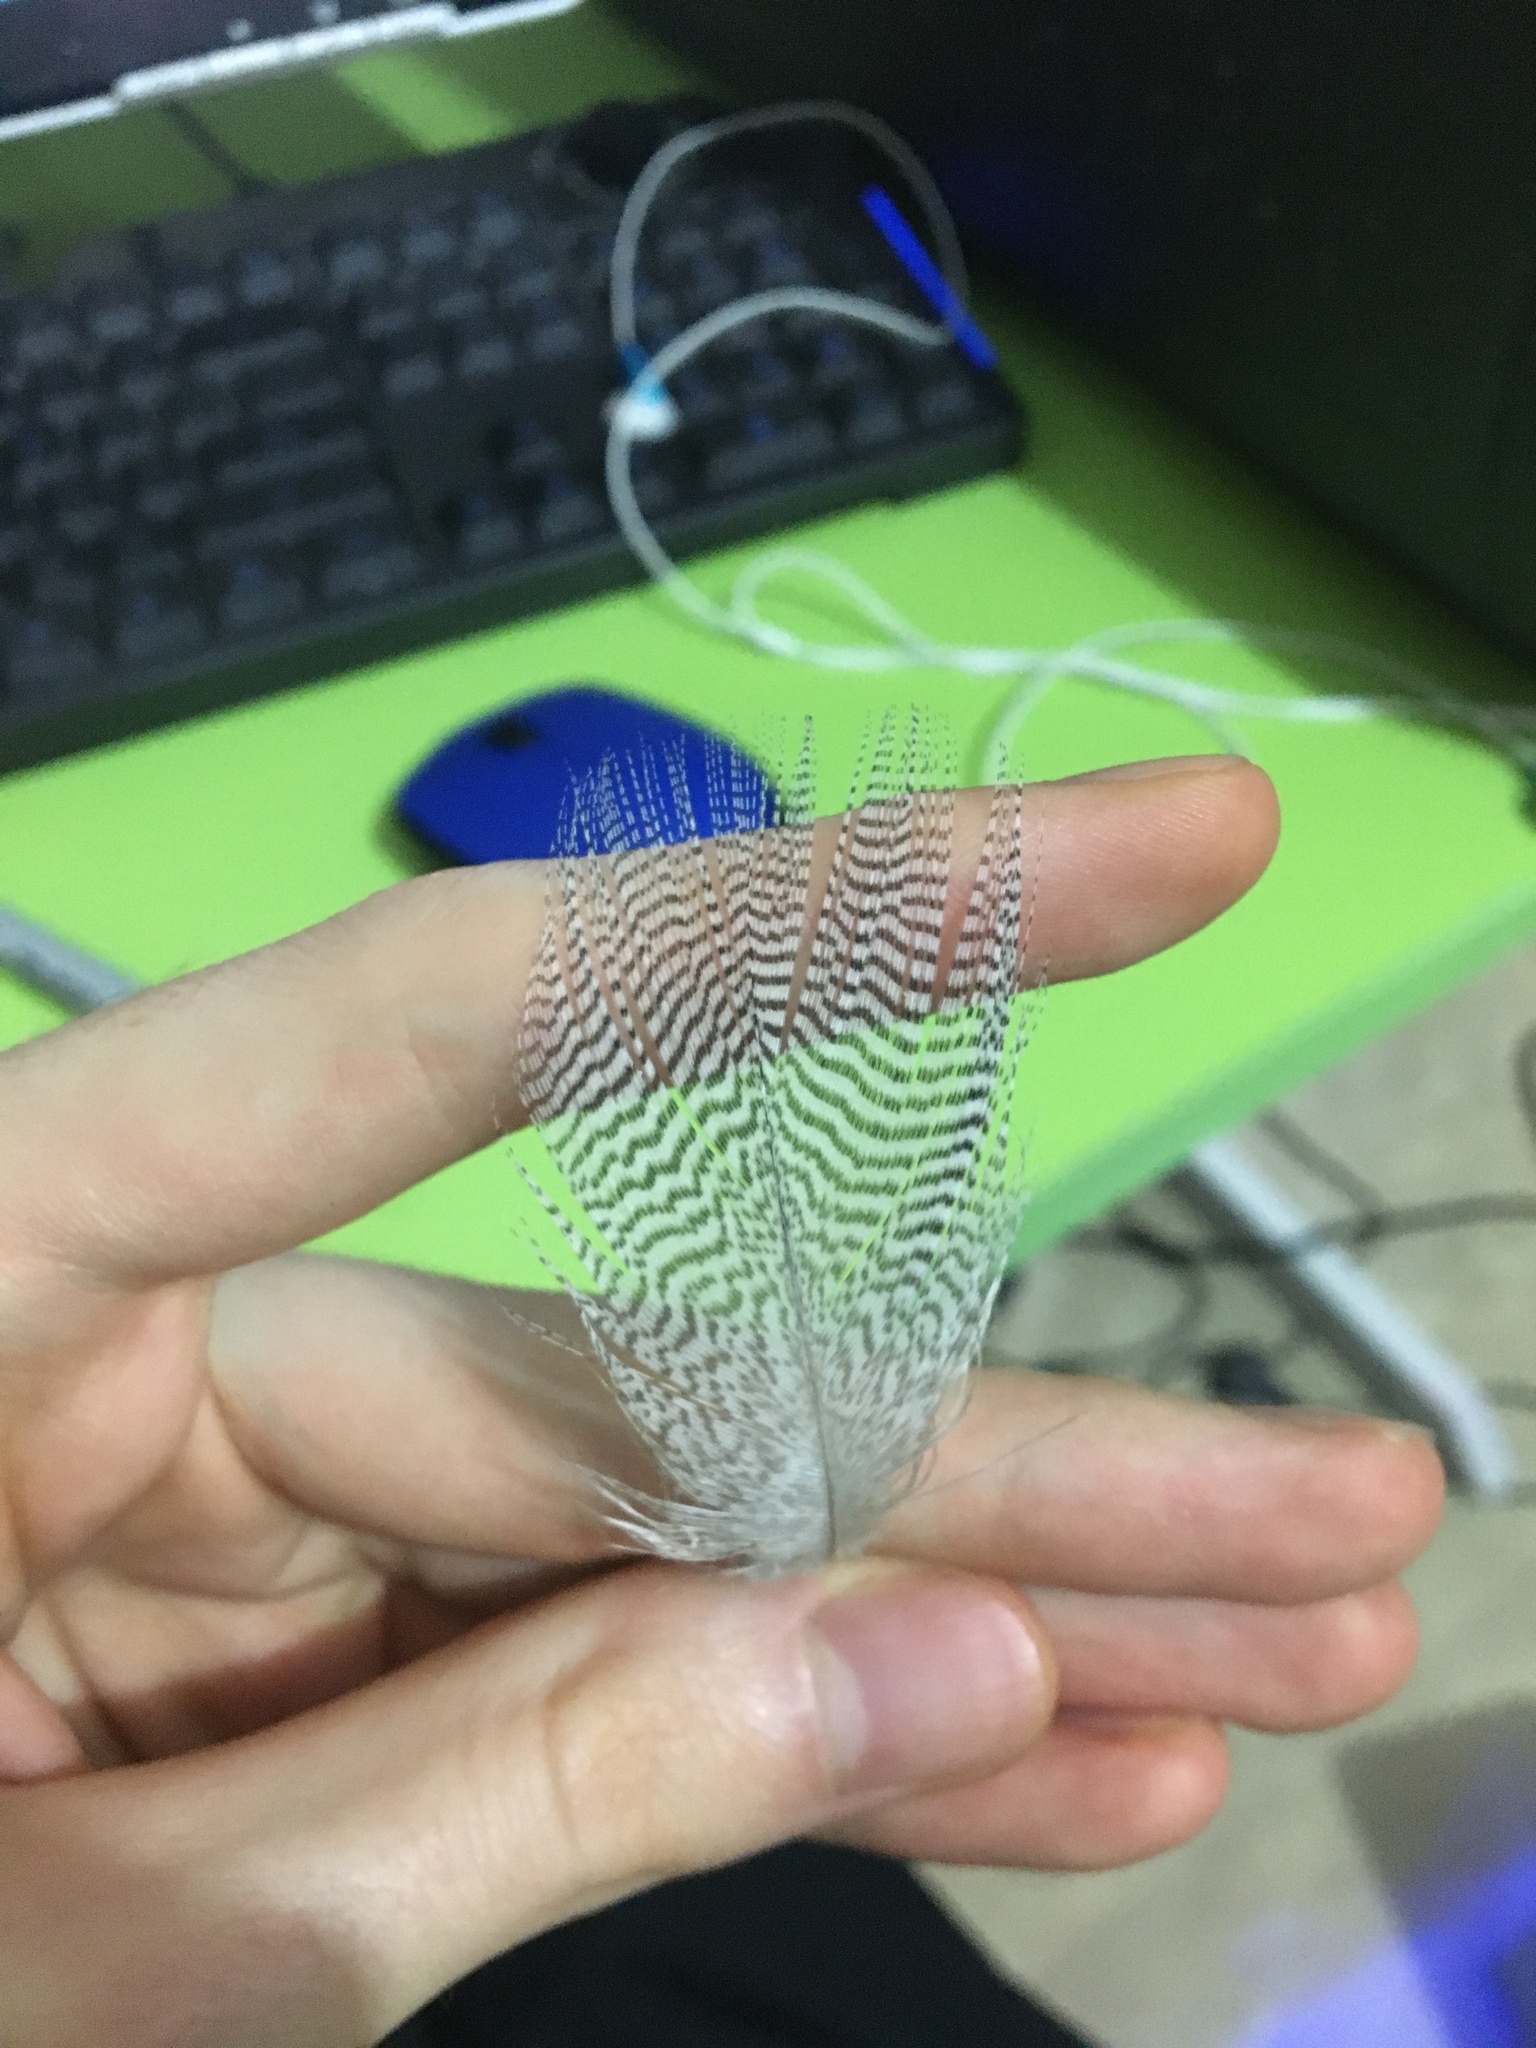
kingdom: Animalia
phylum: Chordata
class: Aves
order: Anseriformes
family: Anatidae
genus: Chenonetta
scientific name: Chenonetta jubata
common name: Maned duck
